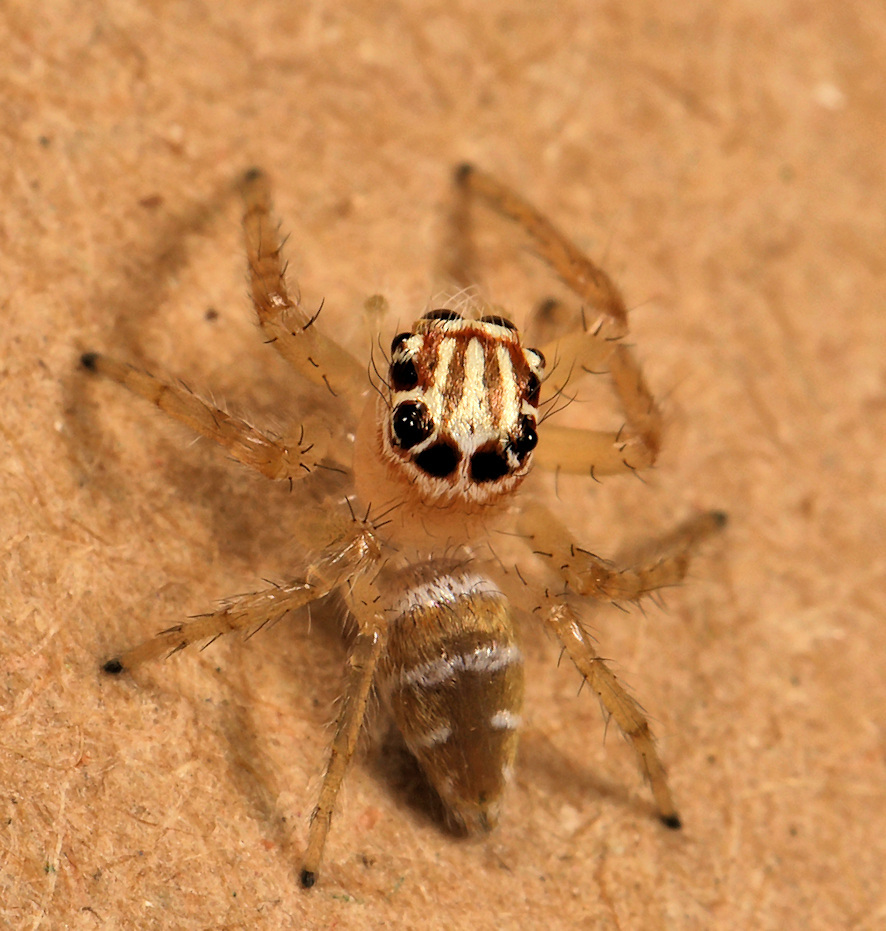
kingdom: Animalia
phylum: Arthropoda
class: Arachnida
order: Araneae
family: Salticidae
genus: Brancus
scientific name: Brancus mustelus
